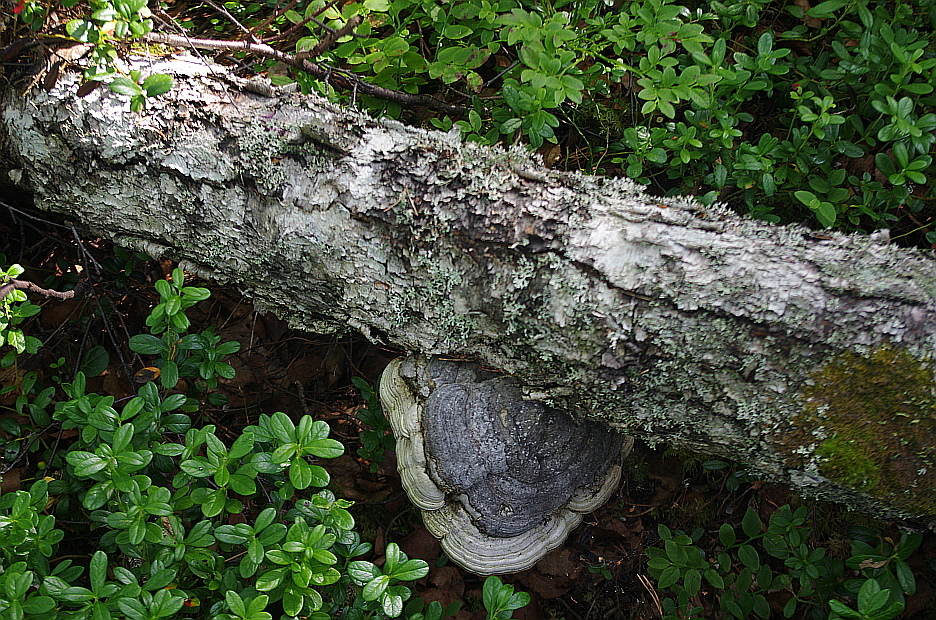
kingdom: Plantae
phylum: Tracheophyta
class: Magnoliopsida
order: Ericales
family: Ericaceae
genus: Vaccinium
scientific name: Vaccinium vitis-idaea
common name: Cowberry
